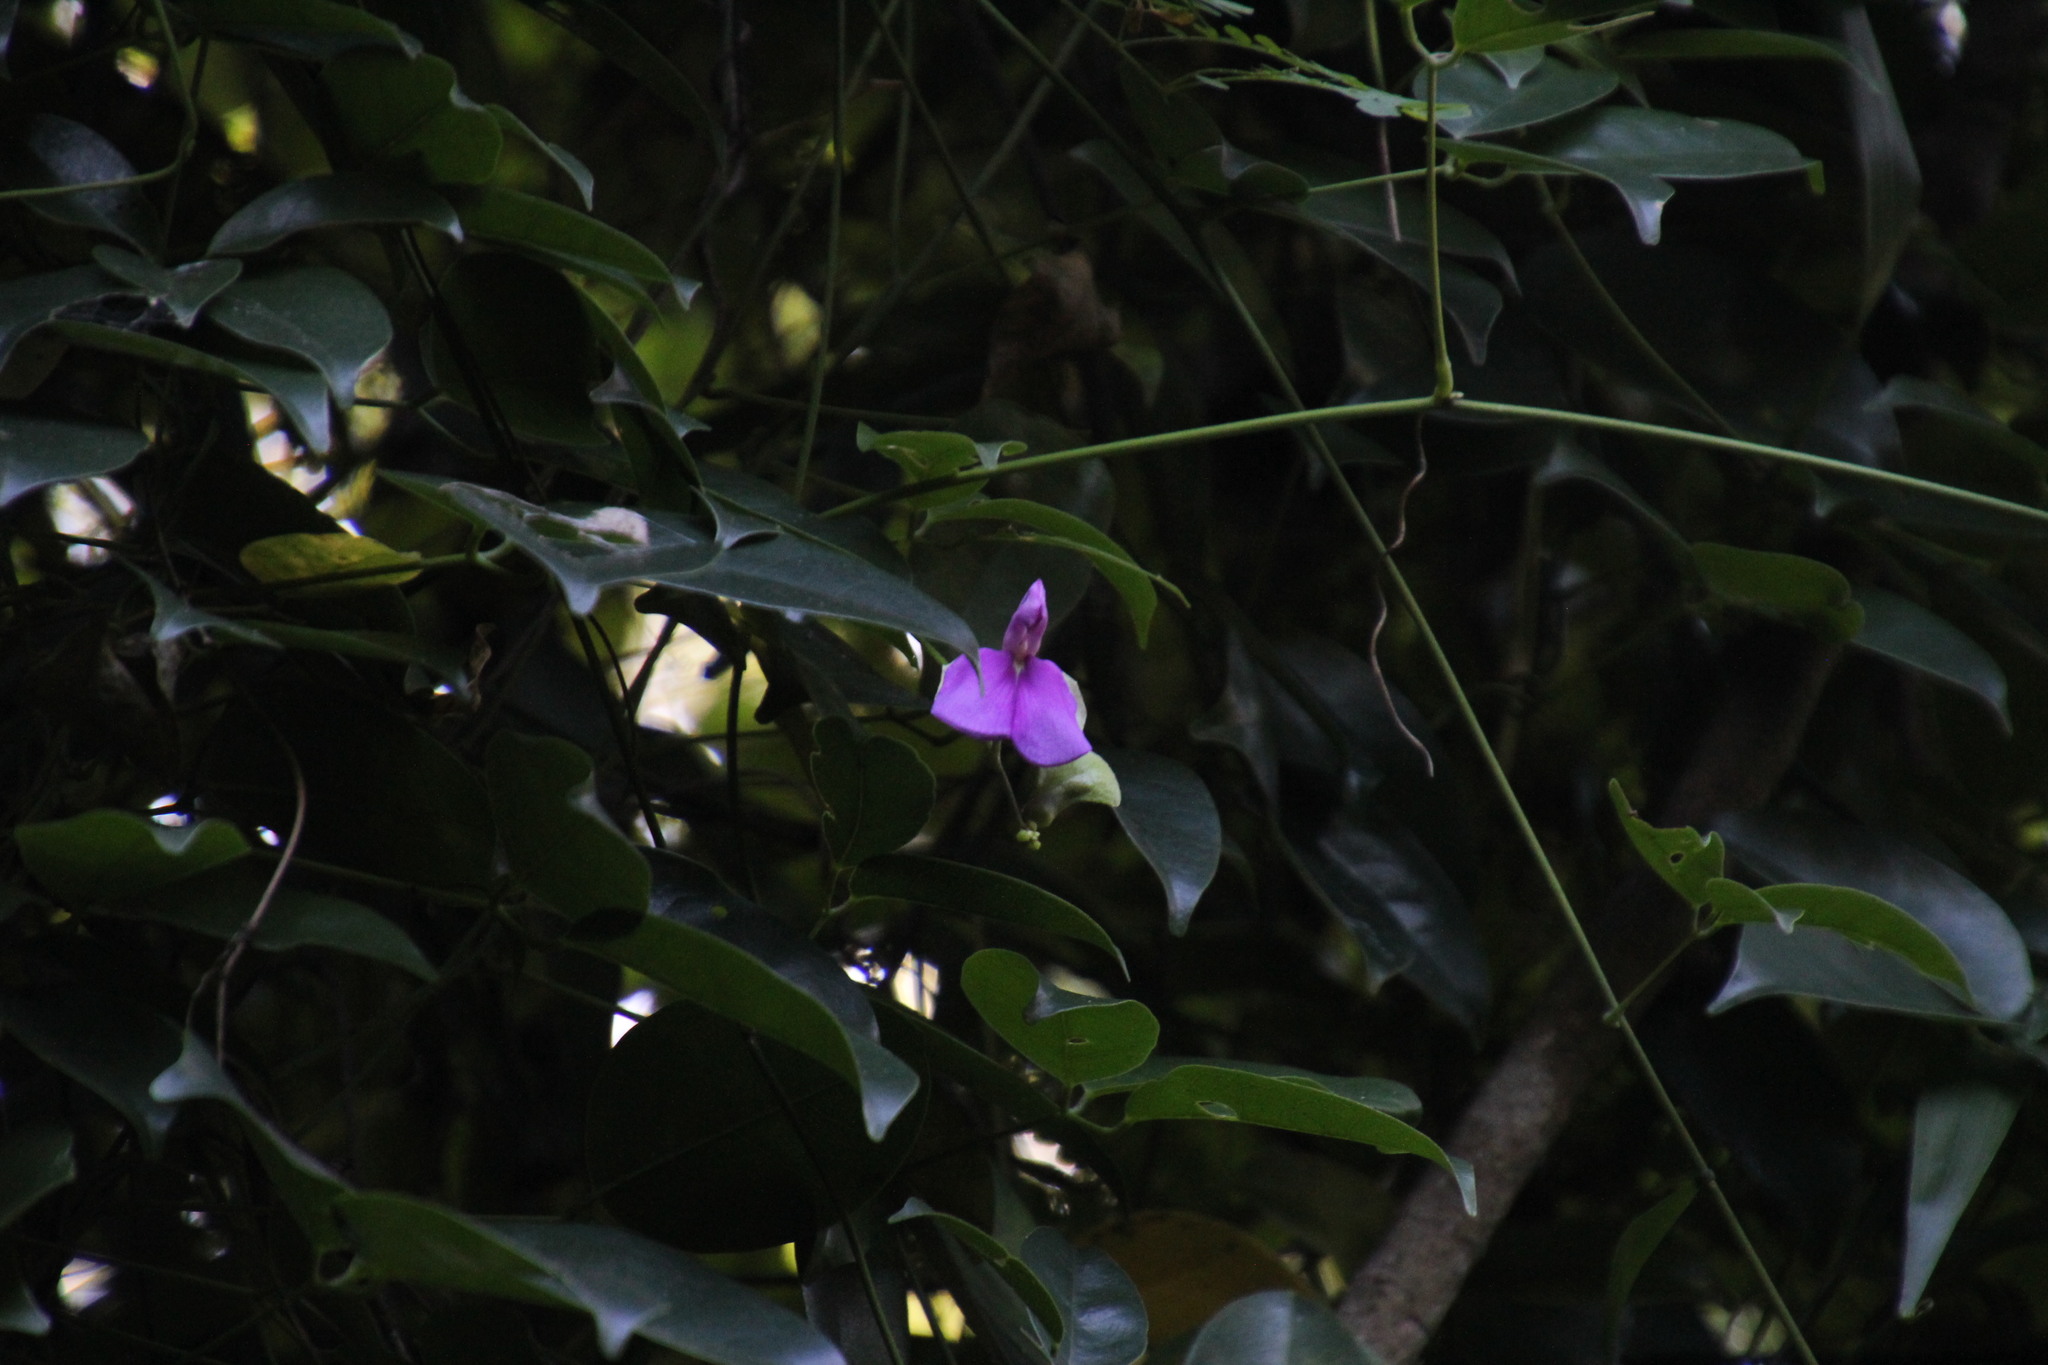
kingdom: Plantae
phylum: Tracheophyta
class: Magnoliopsida
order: Fabales
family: Fabaceae
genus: Canavalia
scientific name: Canavalia bonariensis
